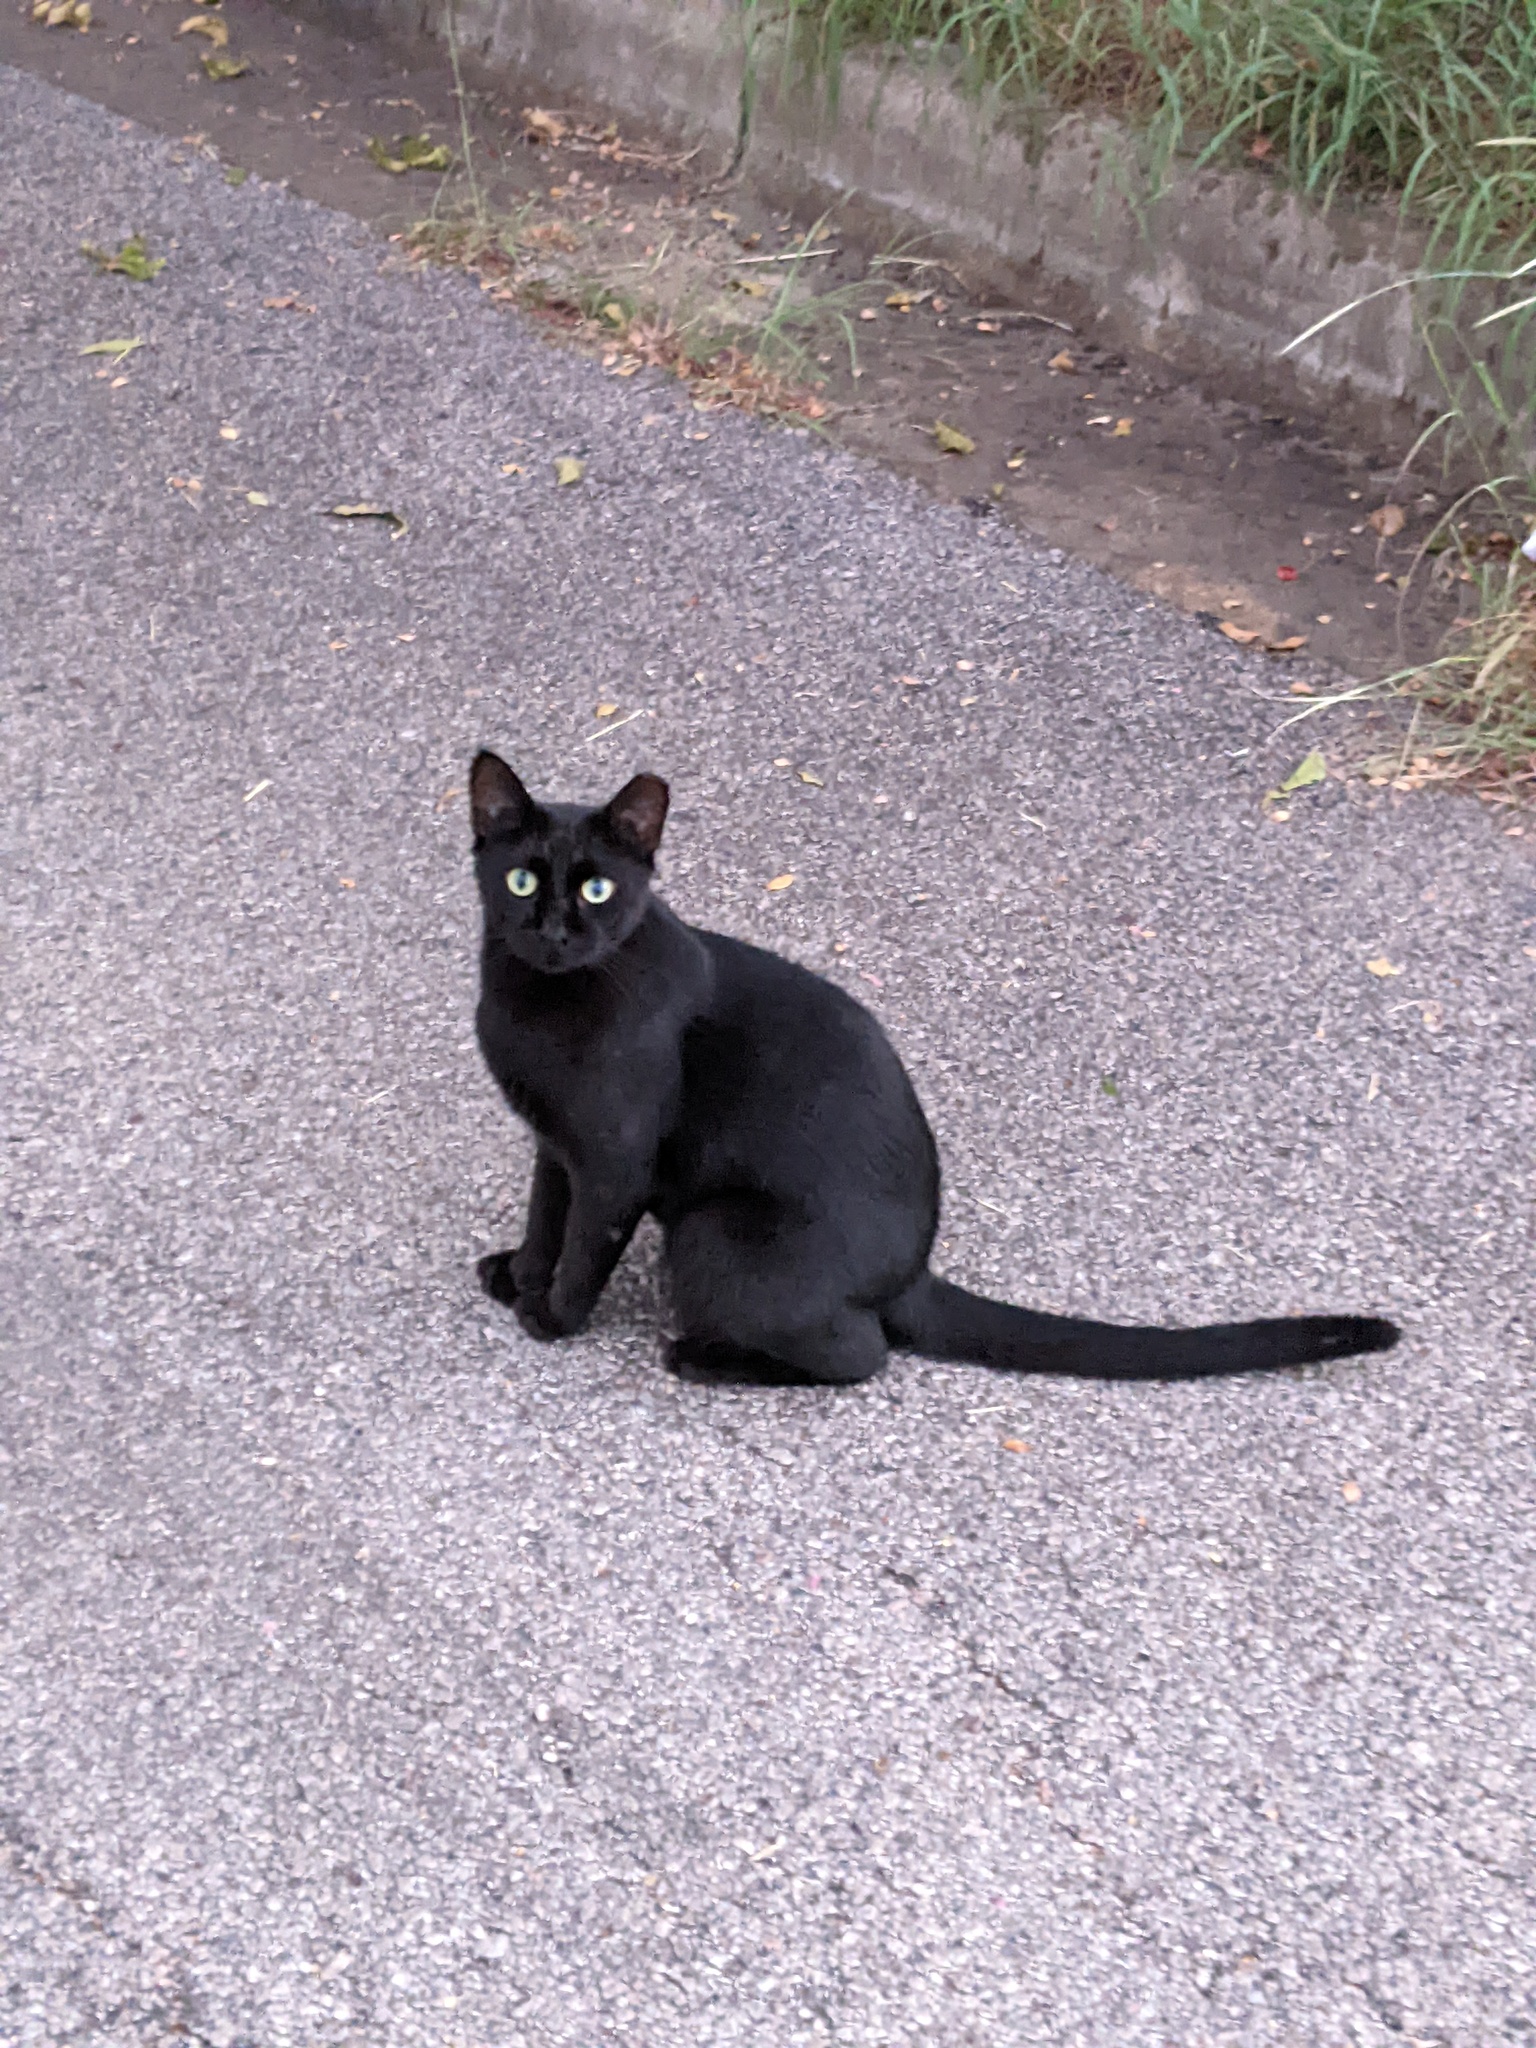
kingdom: Animalia
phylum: Chordata
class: Mammalia
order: Carnivora
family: Felidae
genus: Felis
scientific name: Felis catus
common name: Domestic cat
